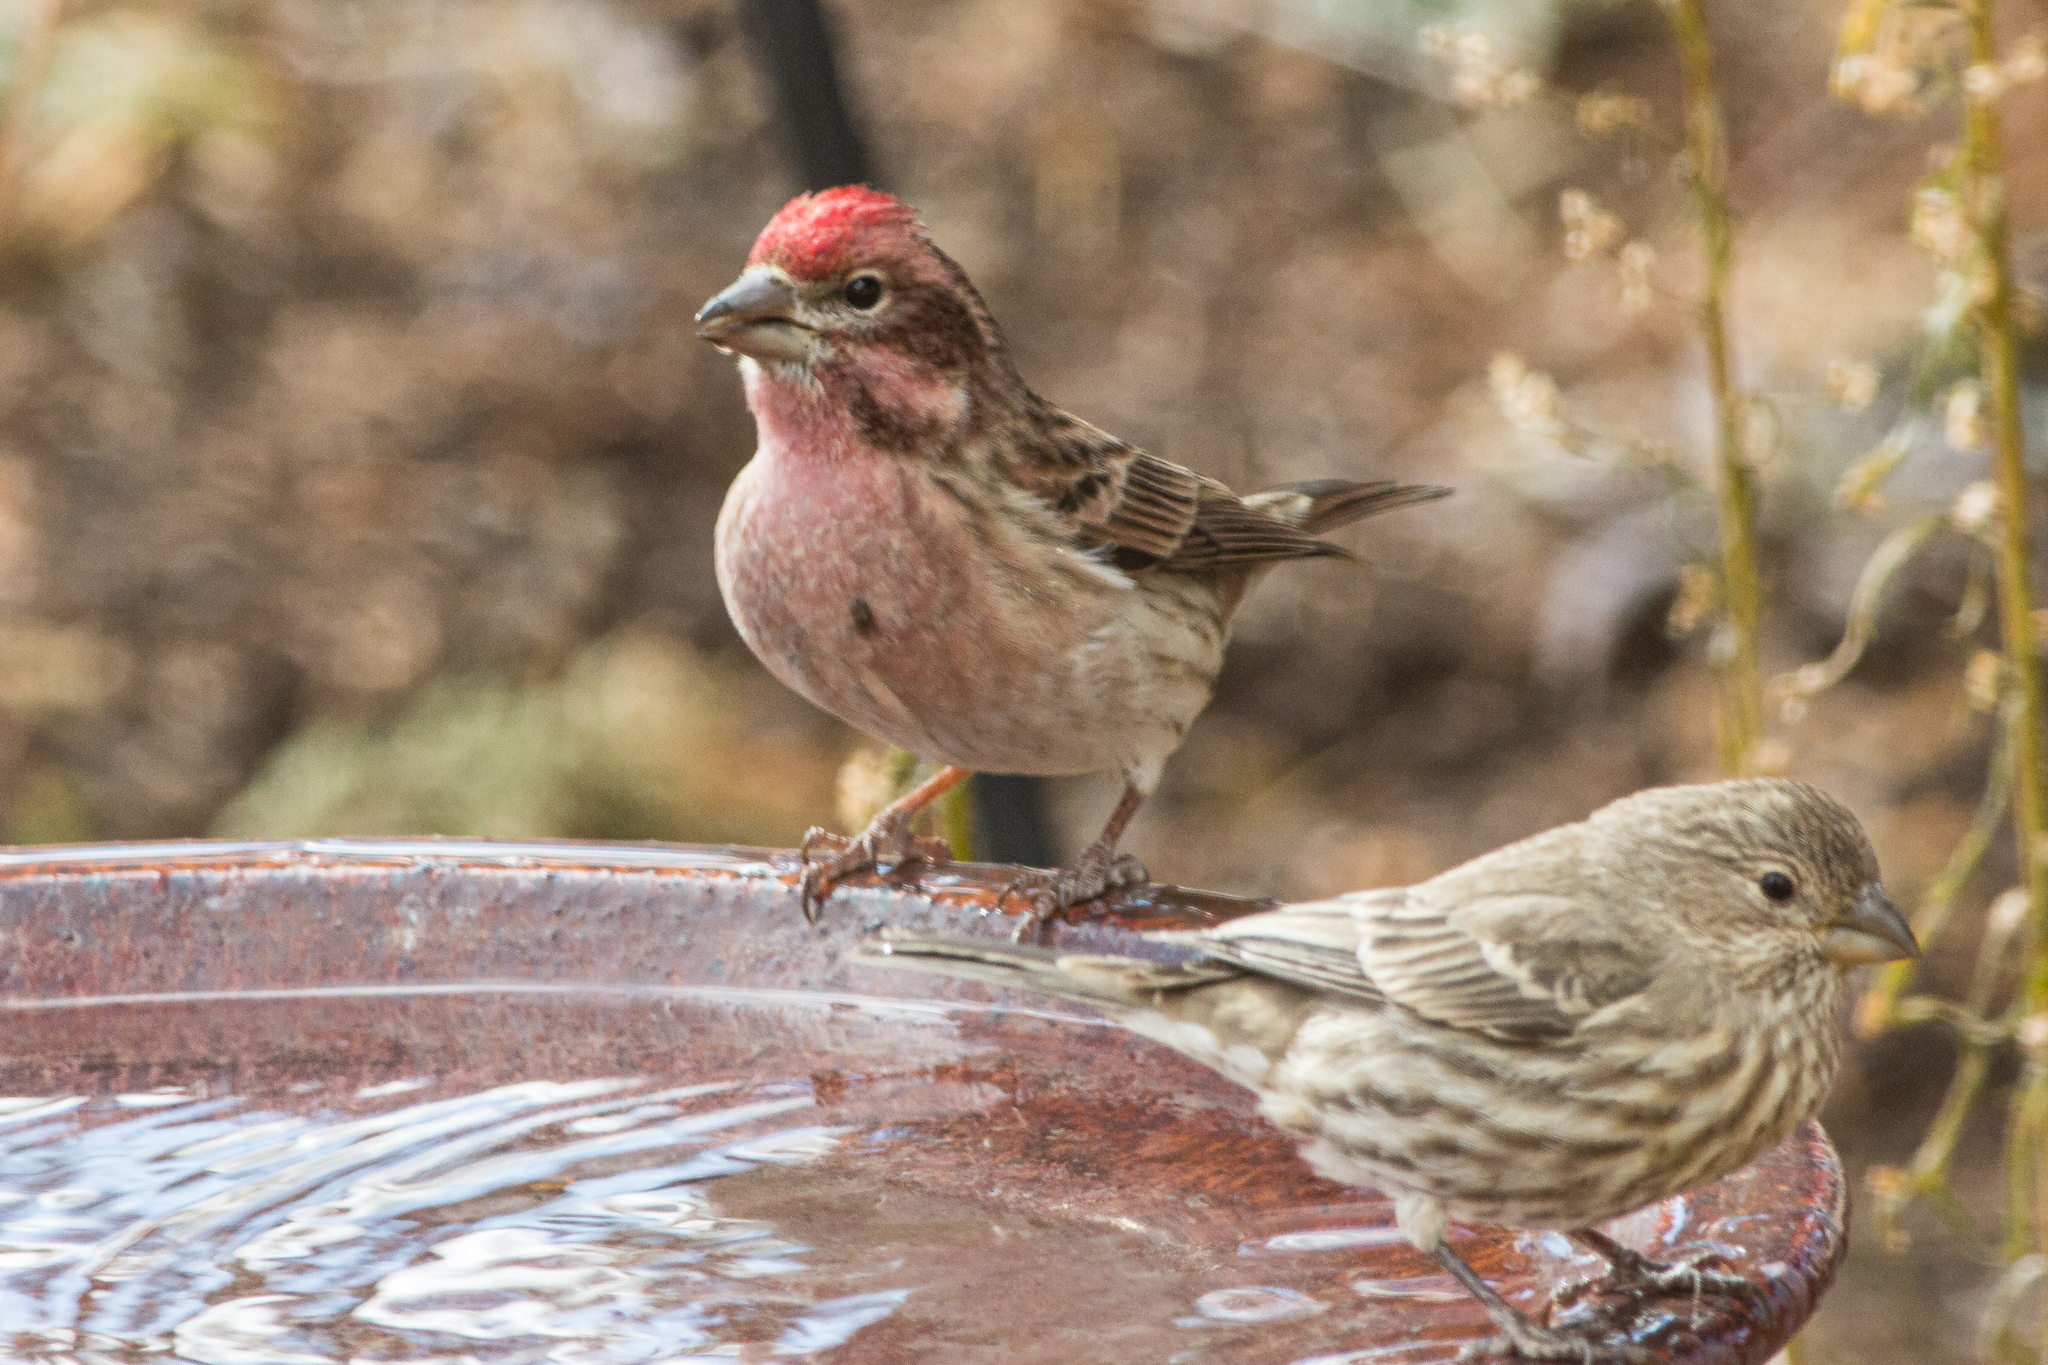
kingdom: Animalia
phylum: Chordata
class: Aves
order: Passeriformes
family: Fringillidae
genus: Haemorhous
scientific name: Haemorhous cassinii
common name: Cassin's finch
